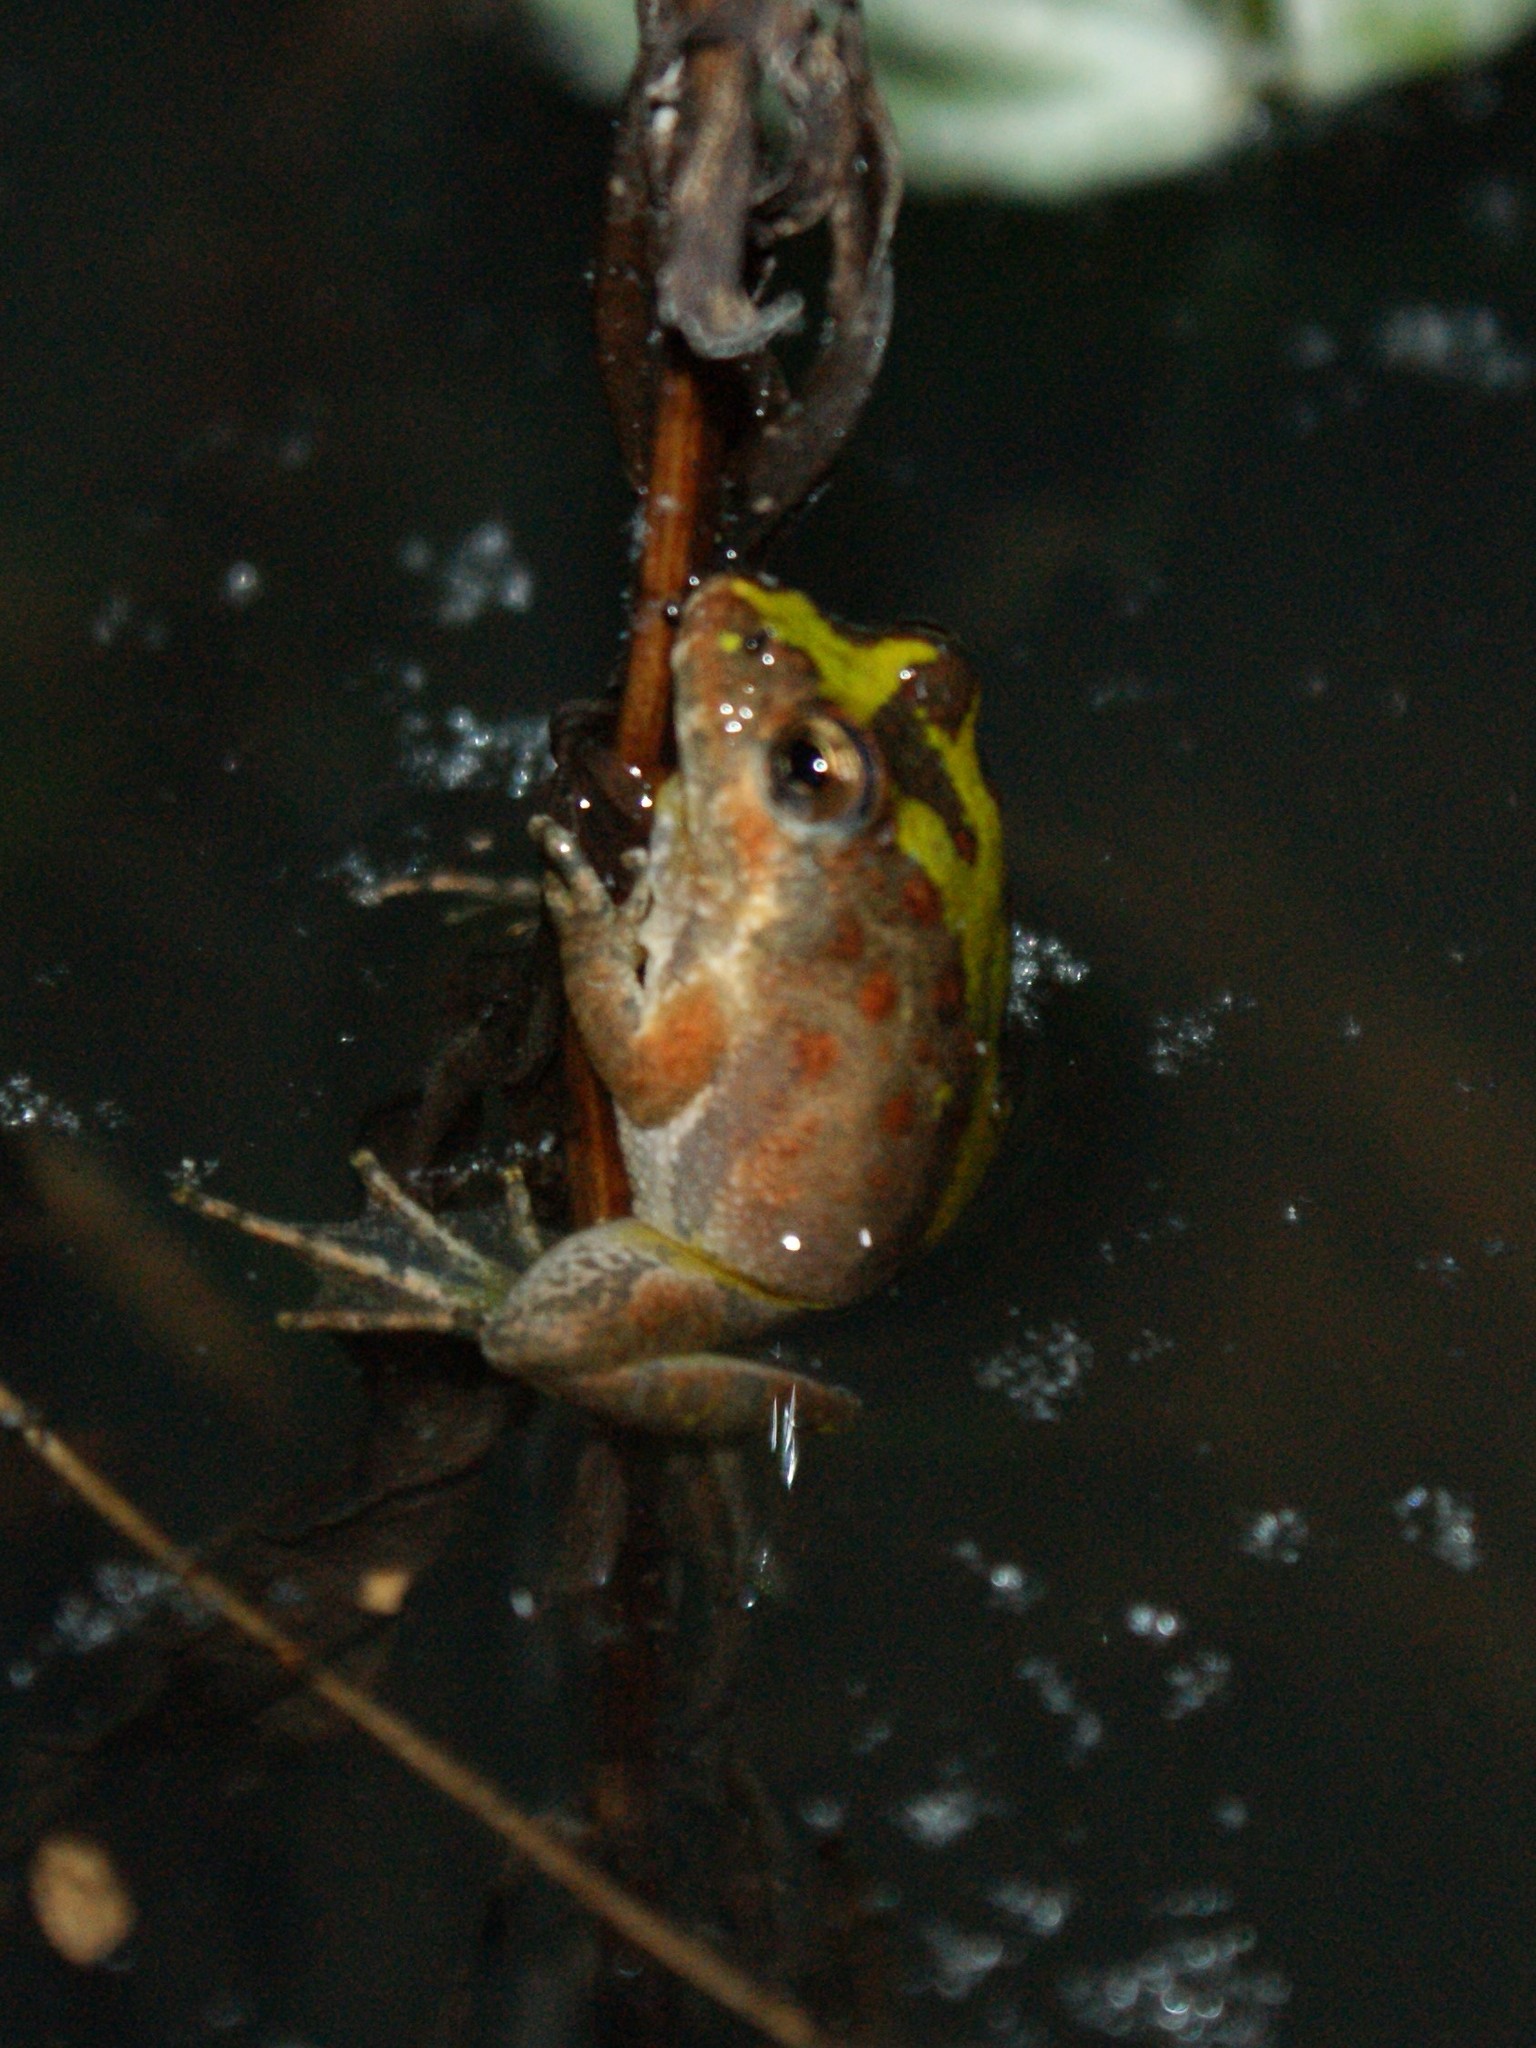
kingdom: Animalia
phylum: Chordata
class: Amphibia
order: Anura
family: Hylidae
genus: Acris
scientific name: Acris crepitans
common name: Northern cricket frog
